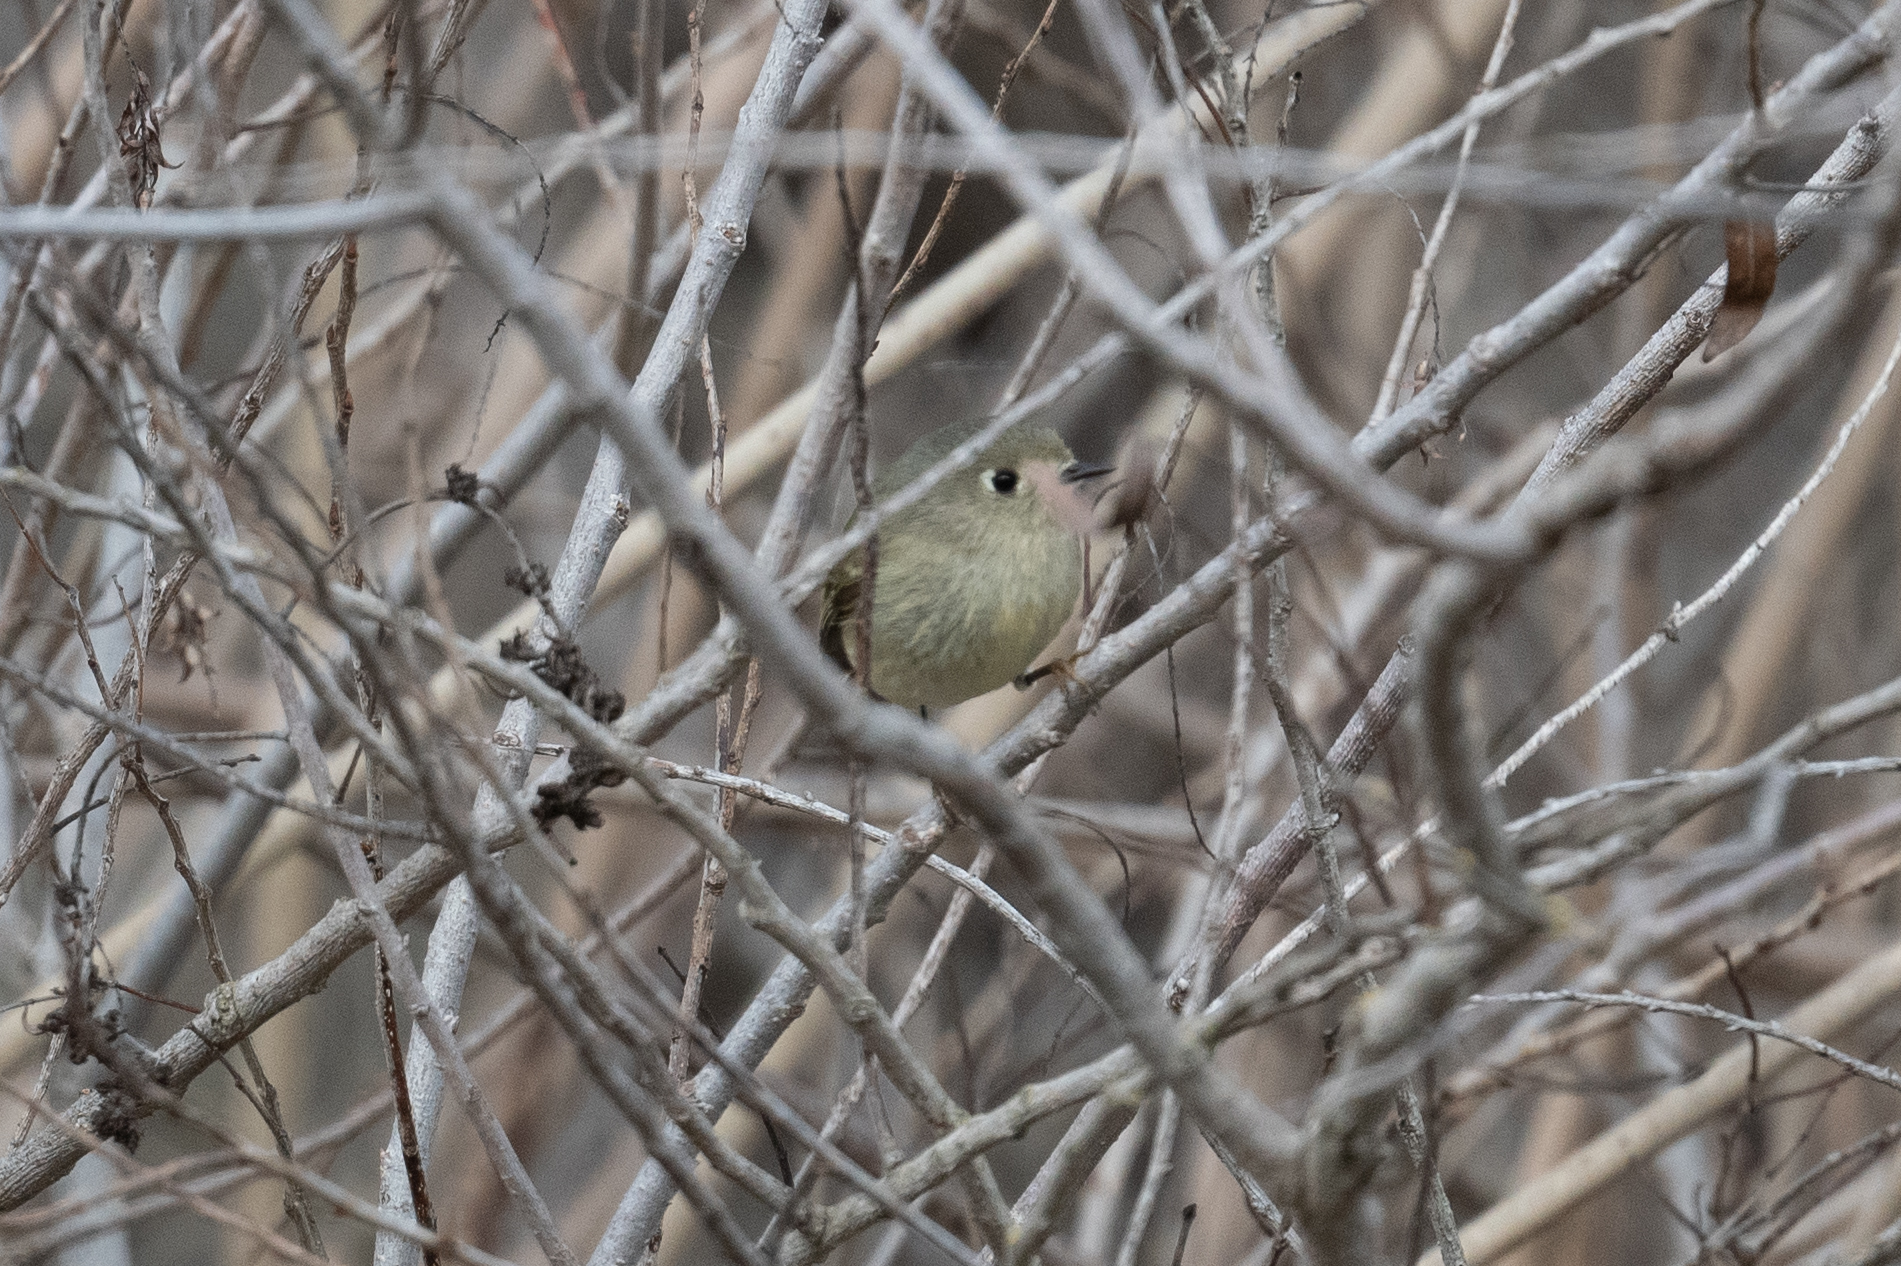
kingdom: Animalia
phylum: Chordata
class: Aves
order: Passeriformes
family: Regulidae
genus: Regulus
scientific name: Regulus calendula
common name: Ruby-crowned kinglet
